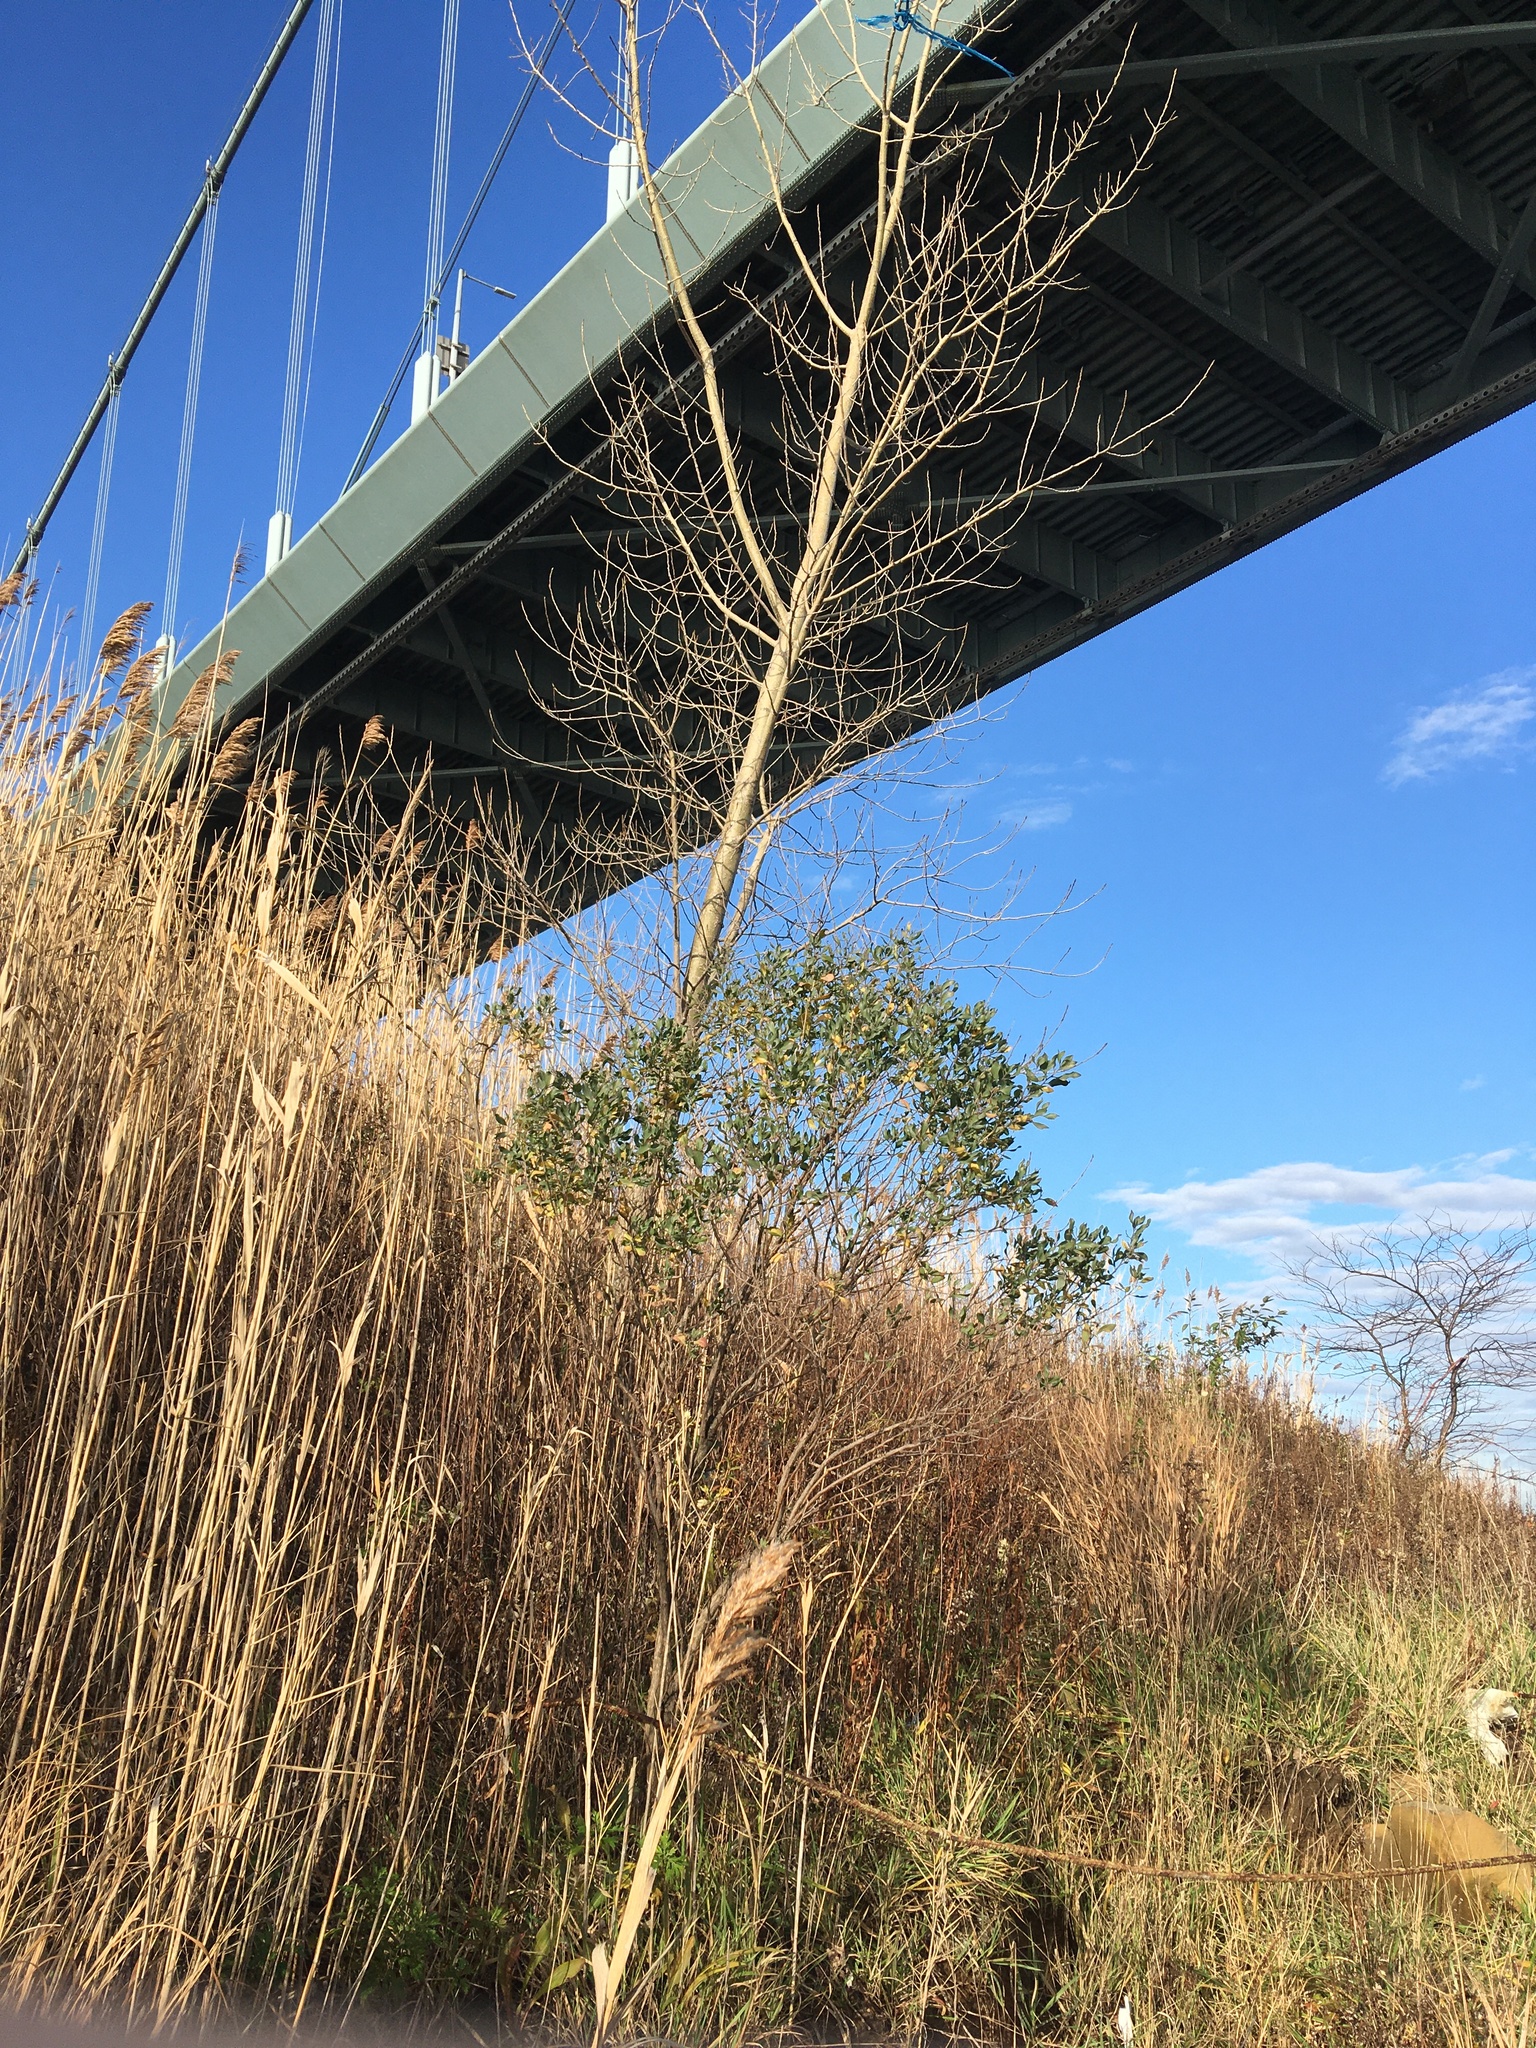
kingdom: Plantae
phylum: Tracheophyta
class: Magnoliopsida
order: Asterales
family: Asteraceae
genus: Baccharis
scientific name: Baccharis halimifolia
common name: Eastern baccharis
